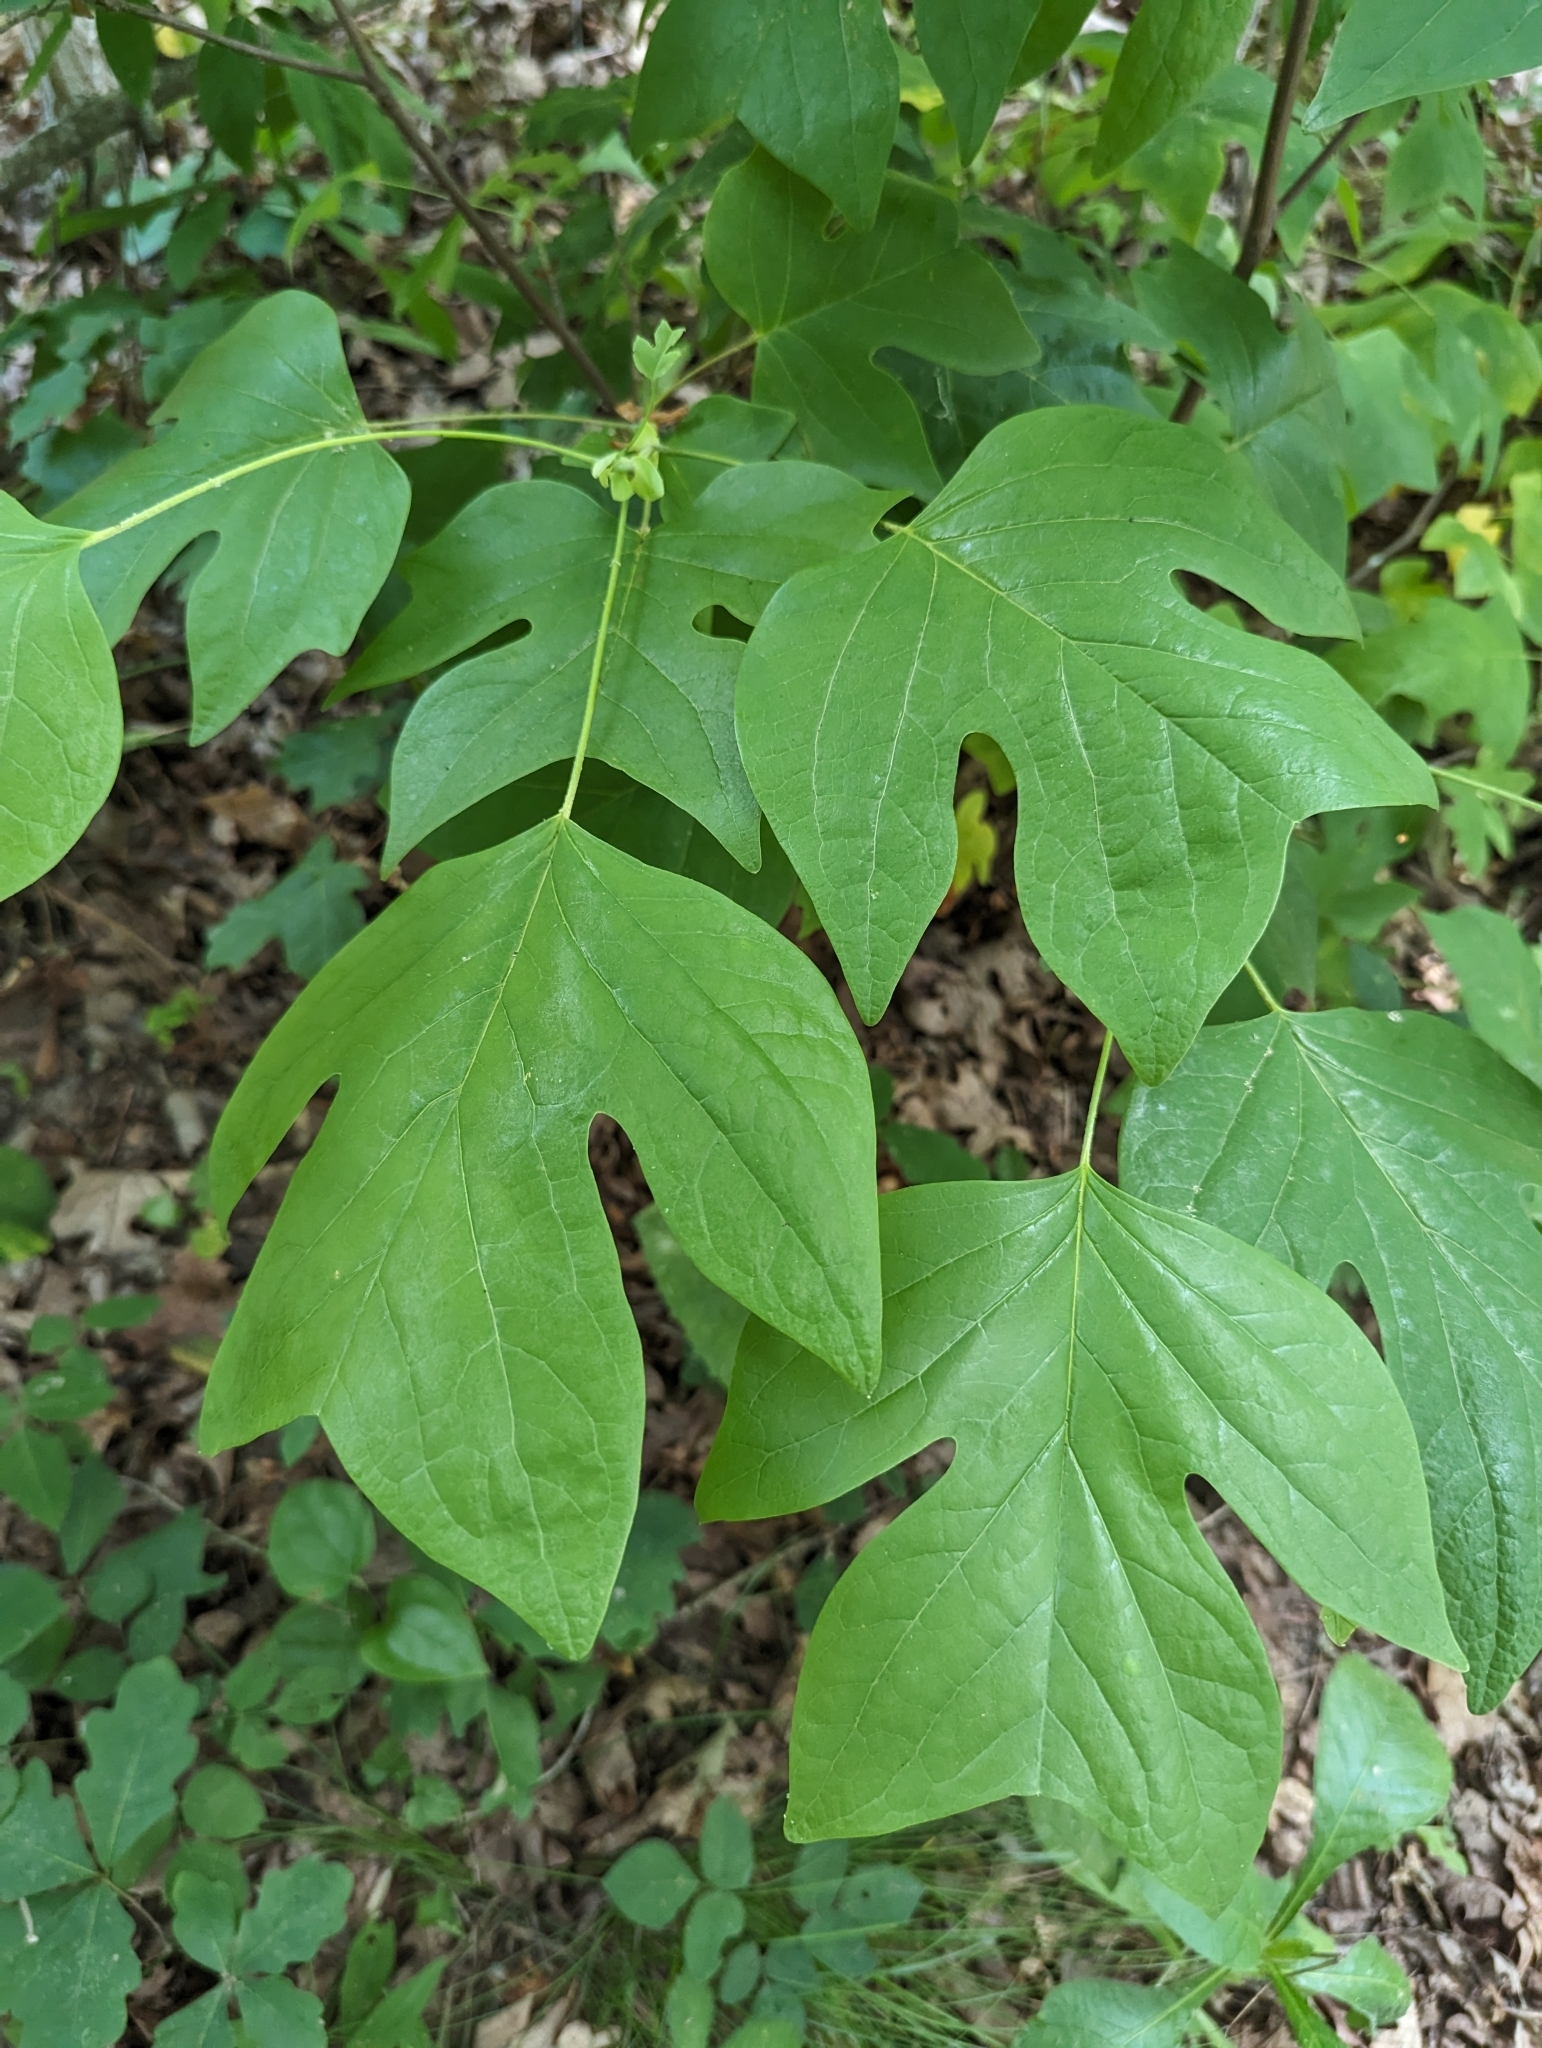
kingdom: Plantae
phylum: Tracheophyta
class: Magnoliopsida
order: Magnoliales
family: Magnoliaceae
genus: Liriodendron
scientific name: Liriodendron tulipifera
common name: Tulip tree
